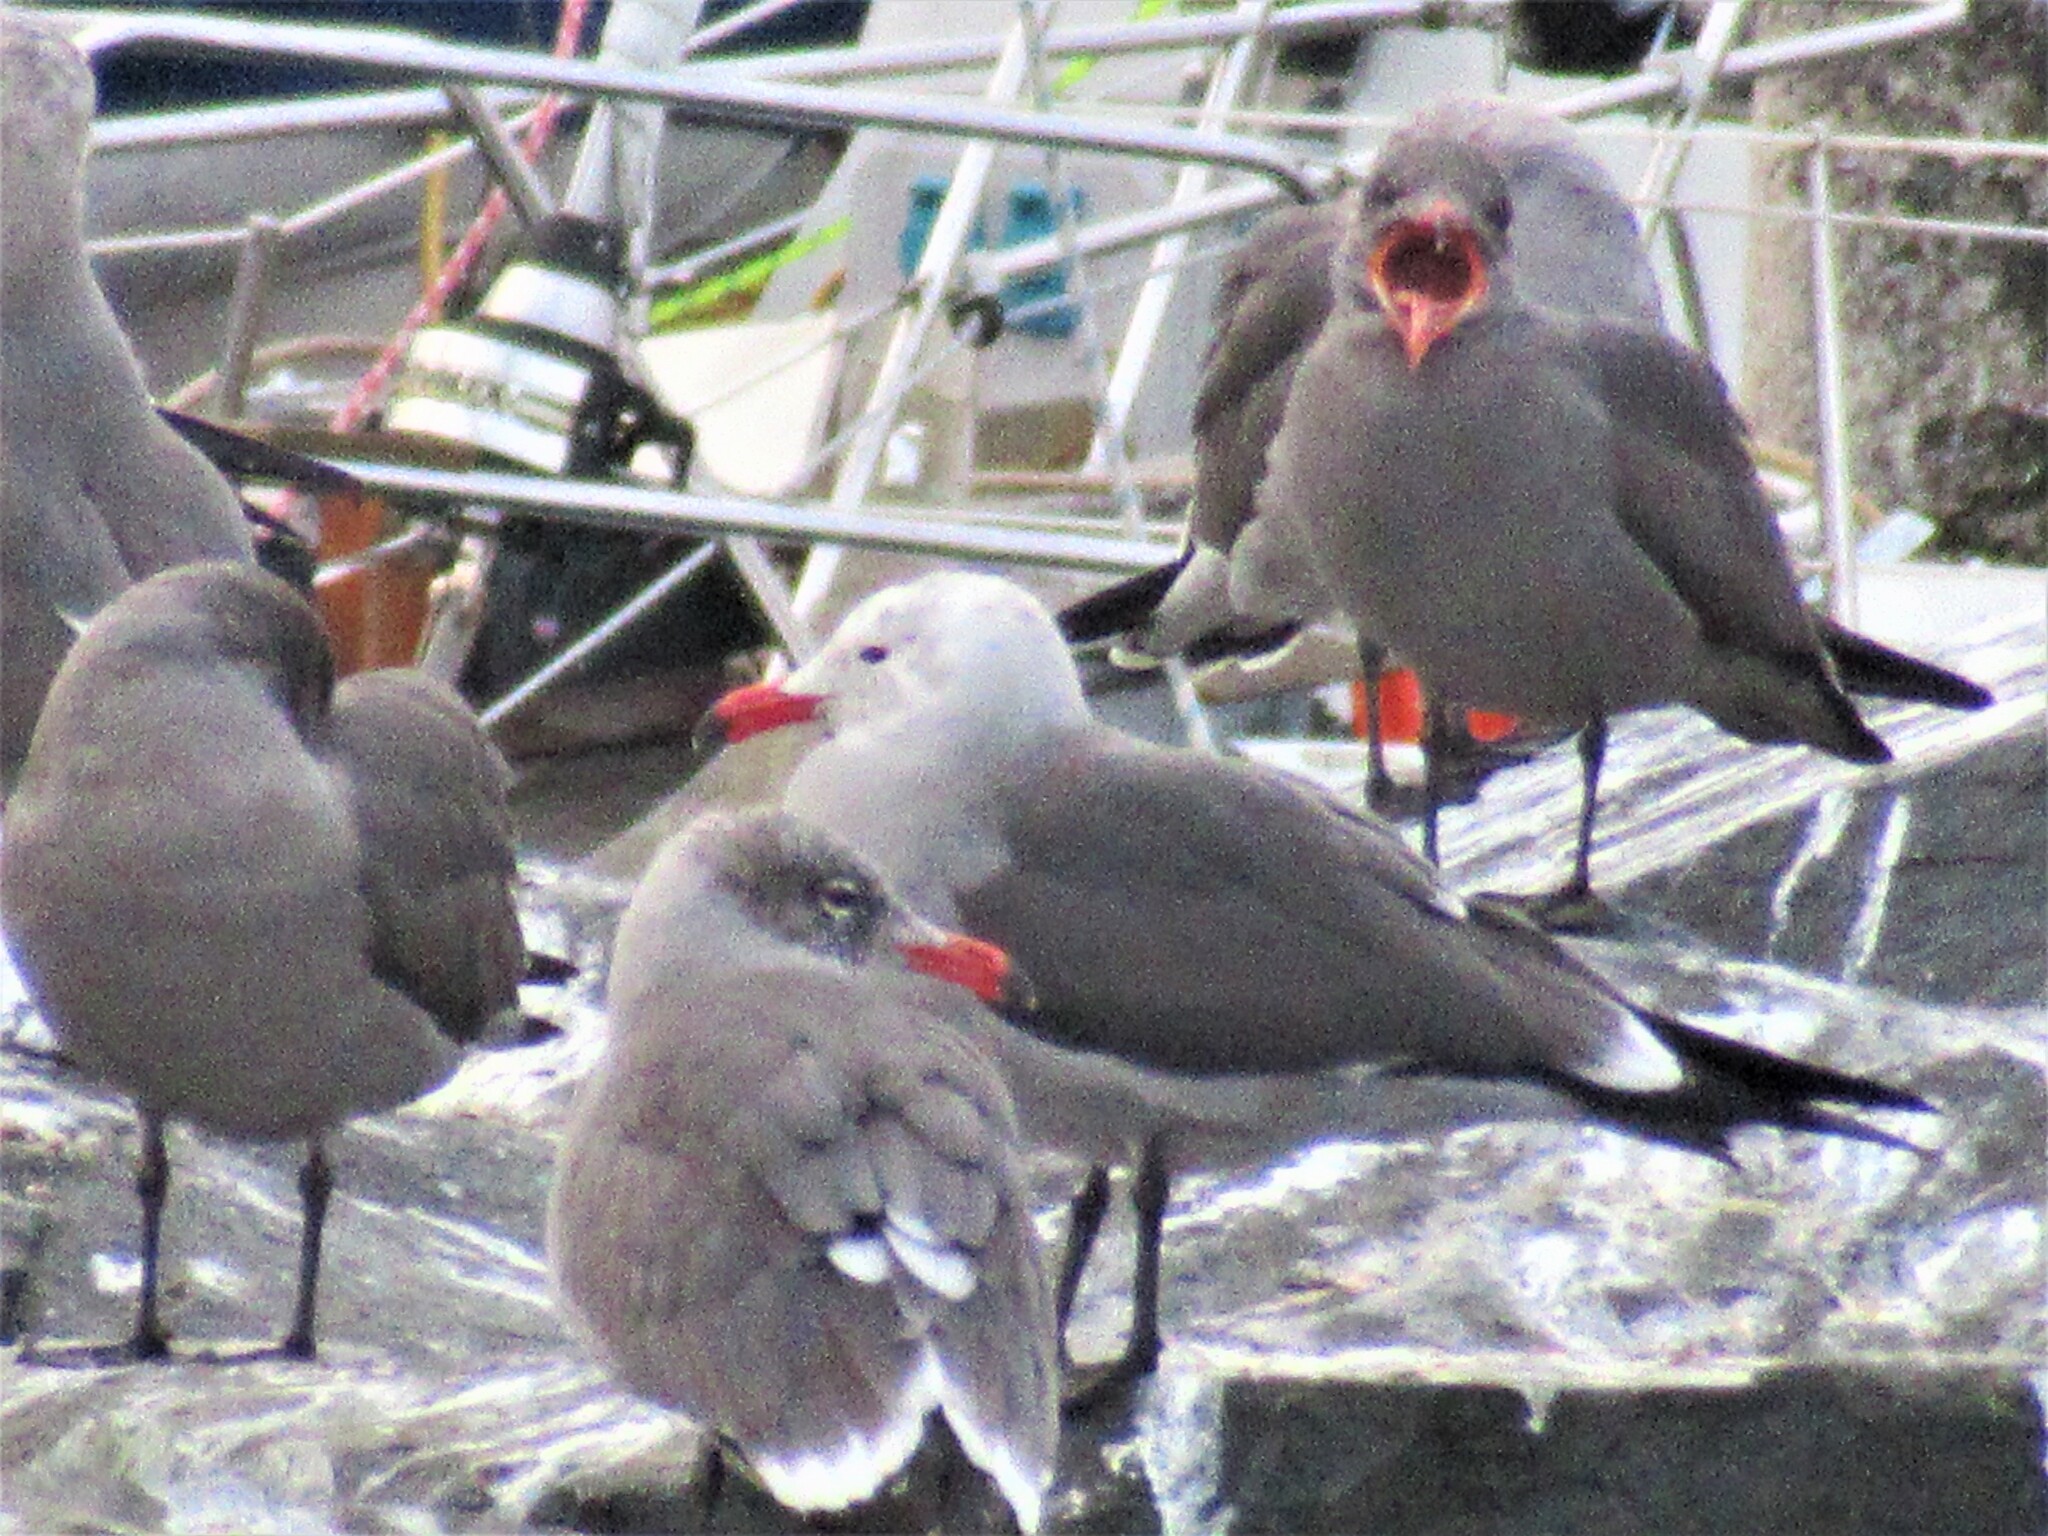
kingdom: Animalia
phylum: Chordata
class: Aves
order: Charadriiformes
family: Laridae
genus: Larus
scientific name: Larus heermanni
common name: Heermann's gull
